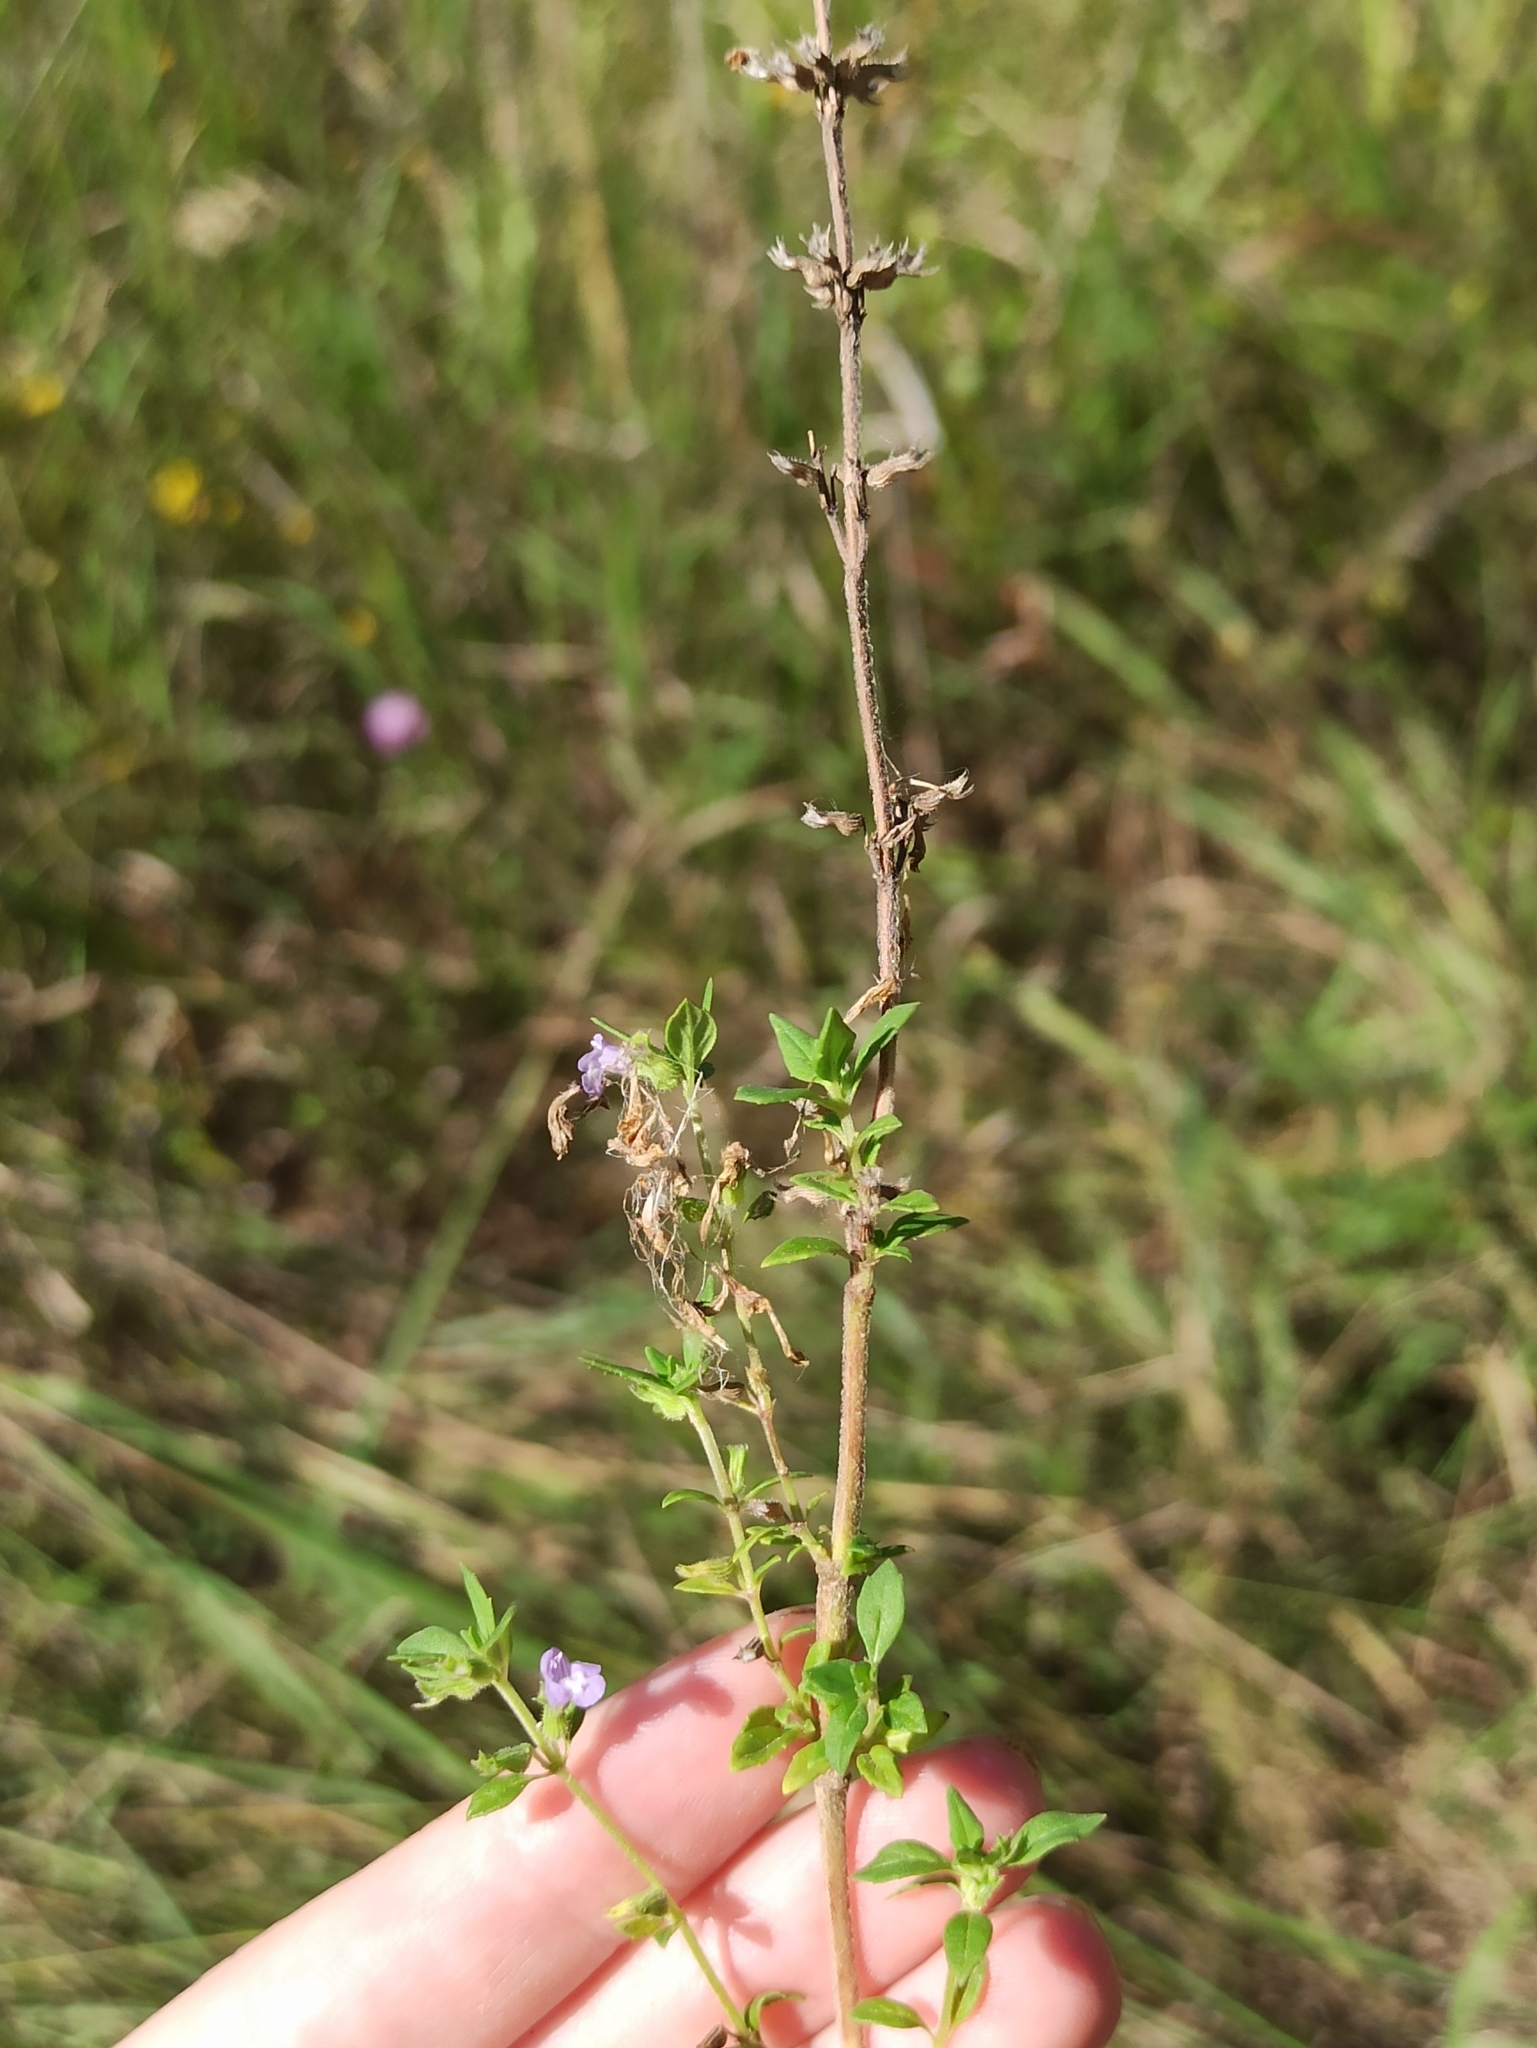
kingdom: Plantae
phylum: Tracheophyta
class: Magnoliopsida
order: Lamiales
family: Lamiaceae
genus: Clinopodium
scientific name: Clinopodium acinos
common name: Basil thyme
